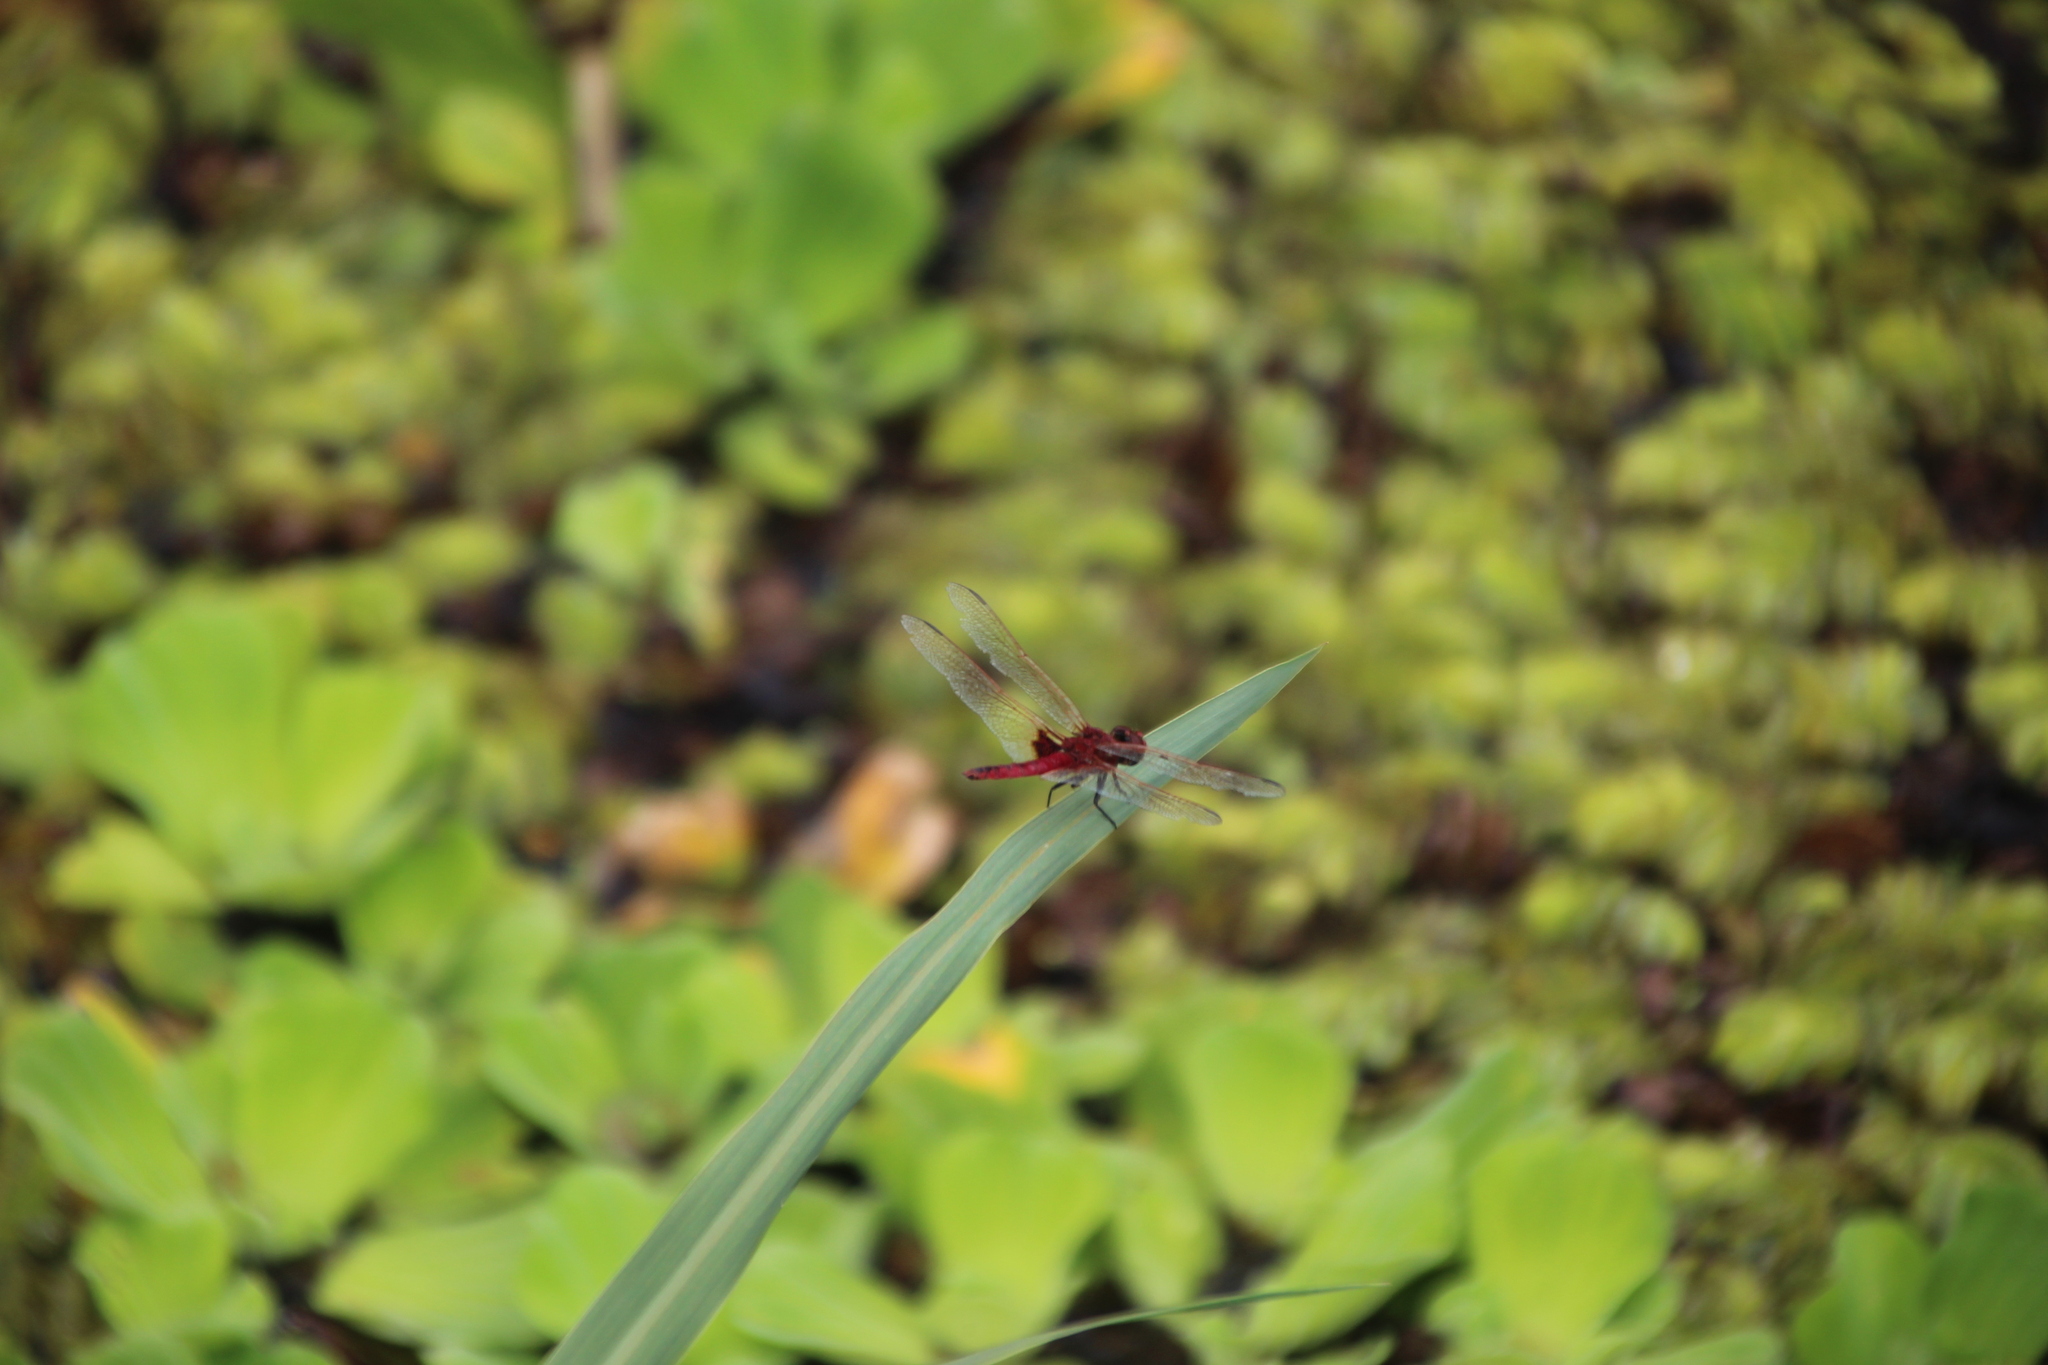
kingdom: Animalia
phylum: Arthropoda
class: Insecta
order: Odonata
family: Libellulidae
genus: Urothemis
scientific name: Urothemis assignata
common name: Red basker
